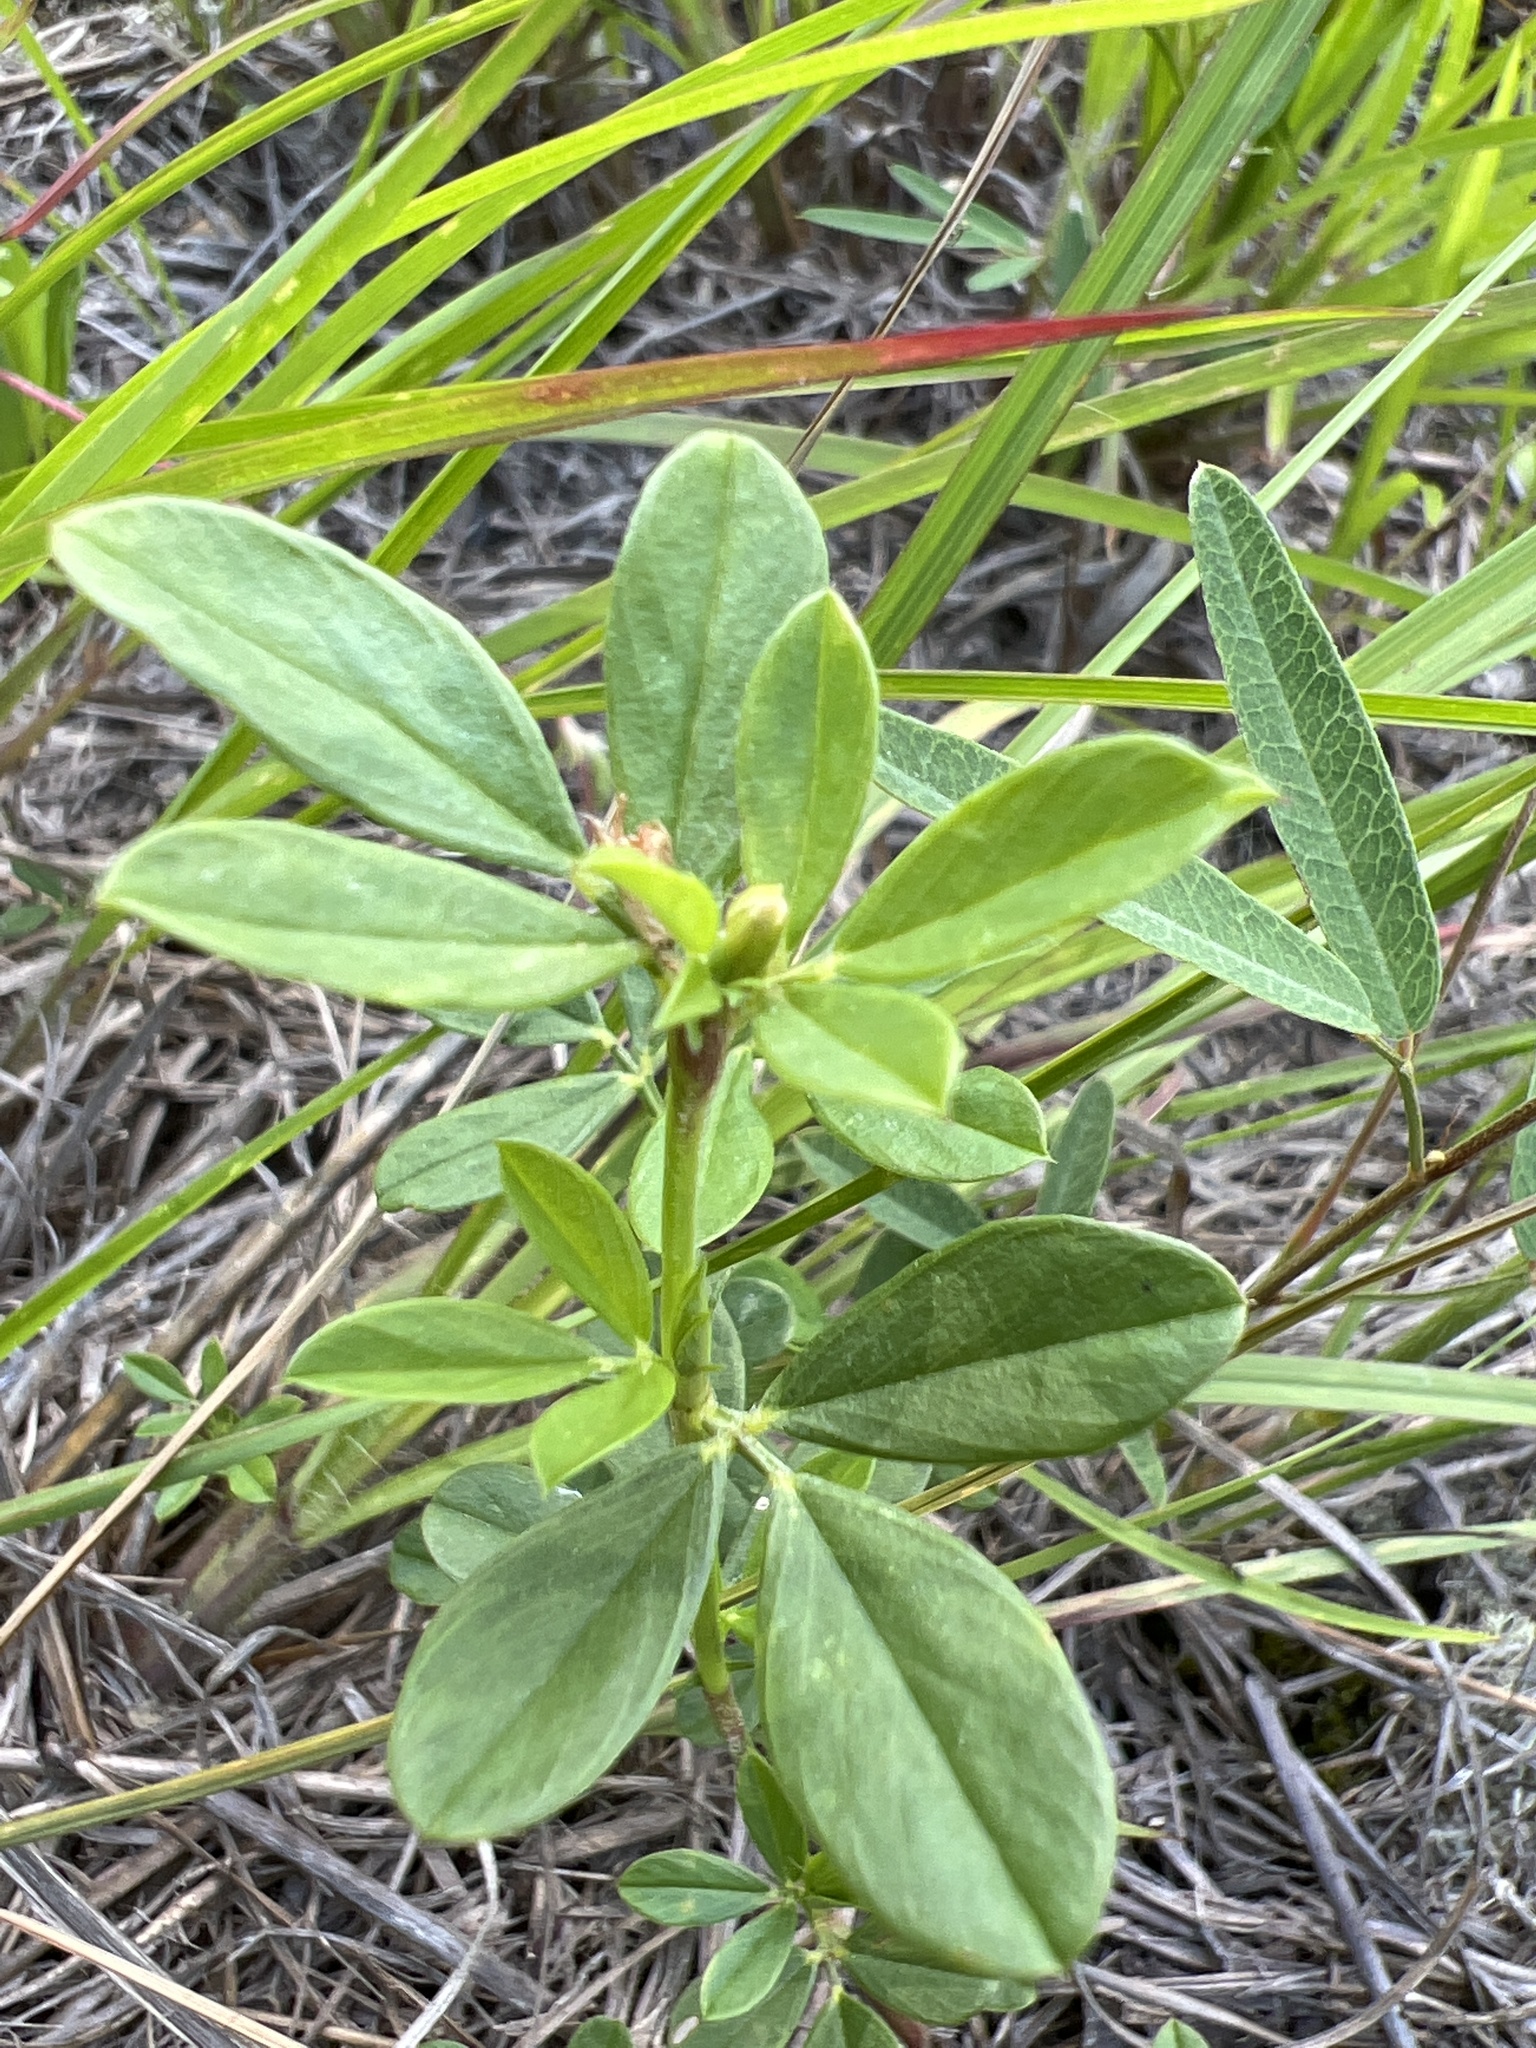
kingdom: Plantae
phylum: Tracheophyta
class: Magnoliopsida
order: Fabales
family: Fabaceae
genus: Stylosanthes
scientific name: Stylosanthes biflora
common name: Two-flower pencil-flower
